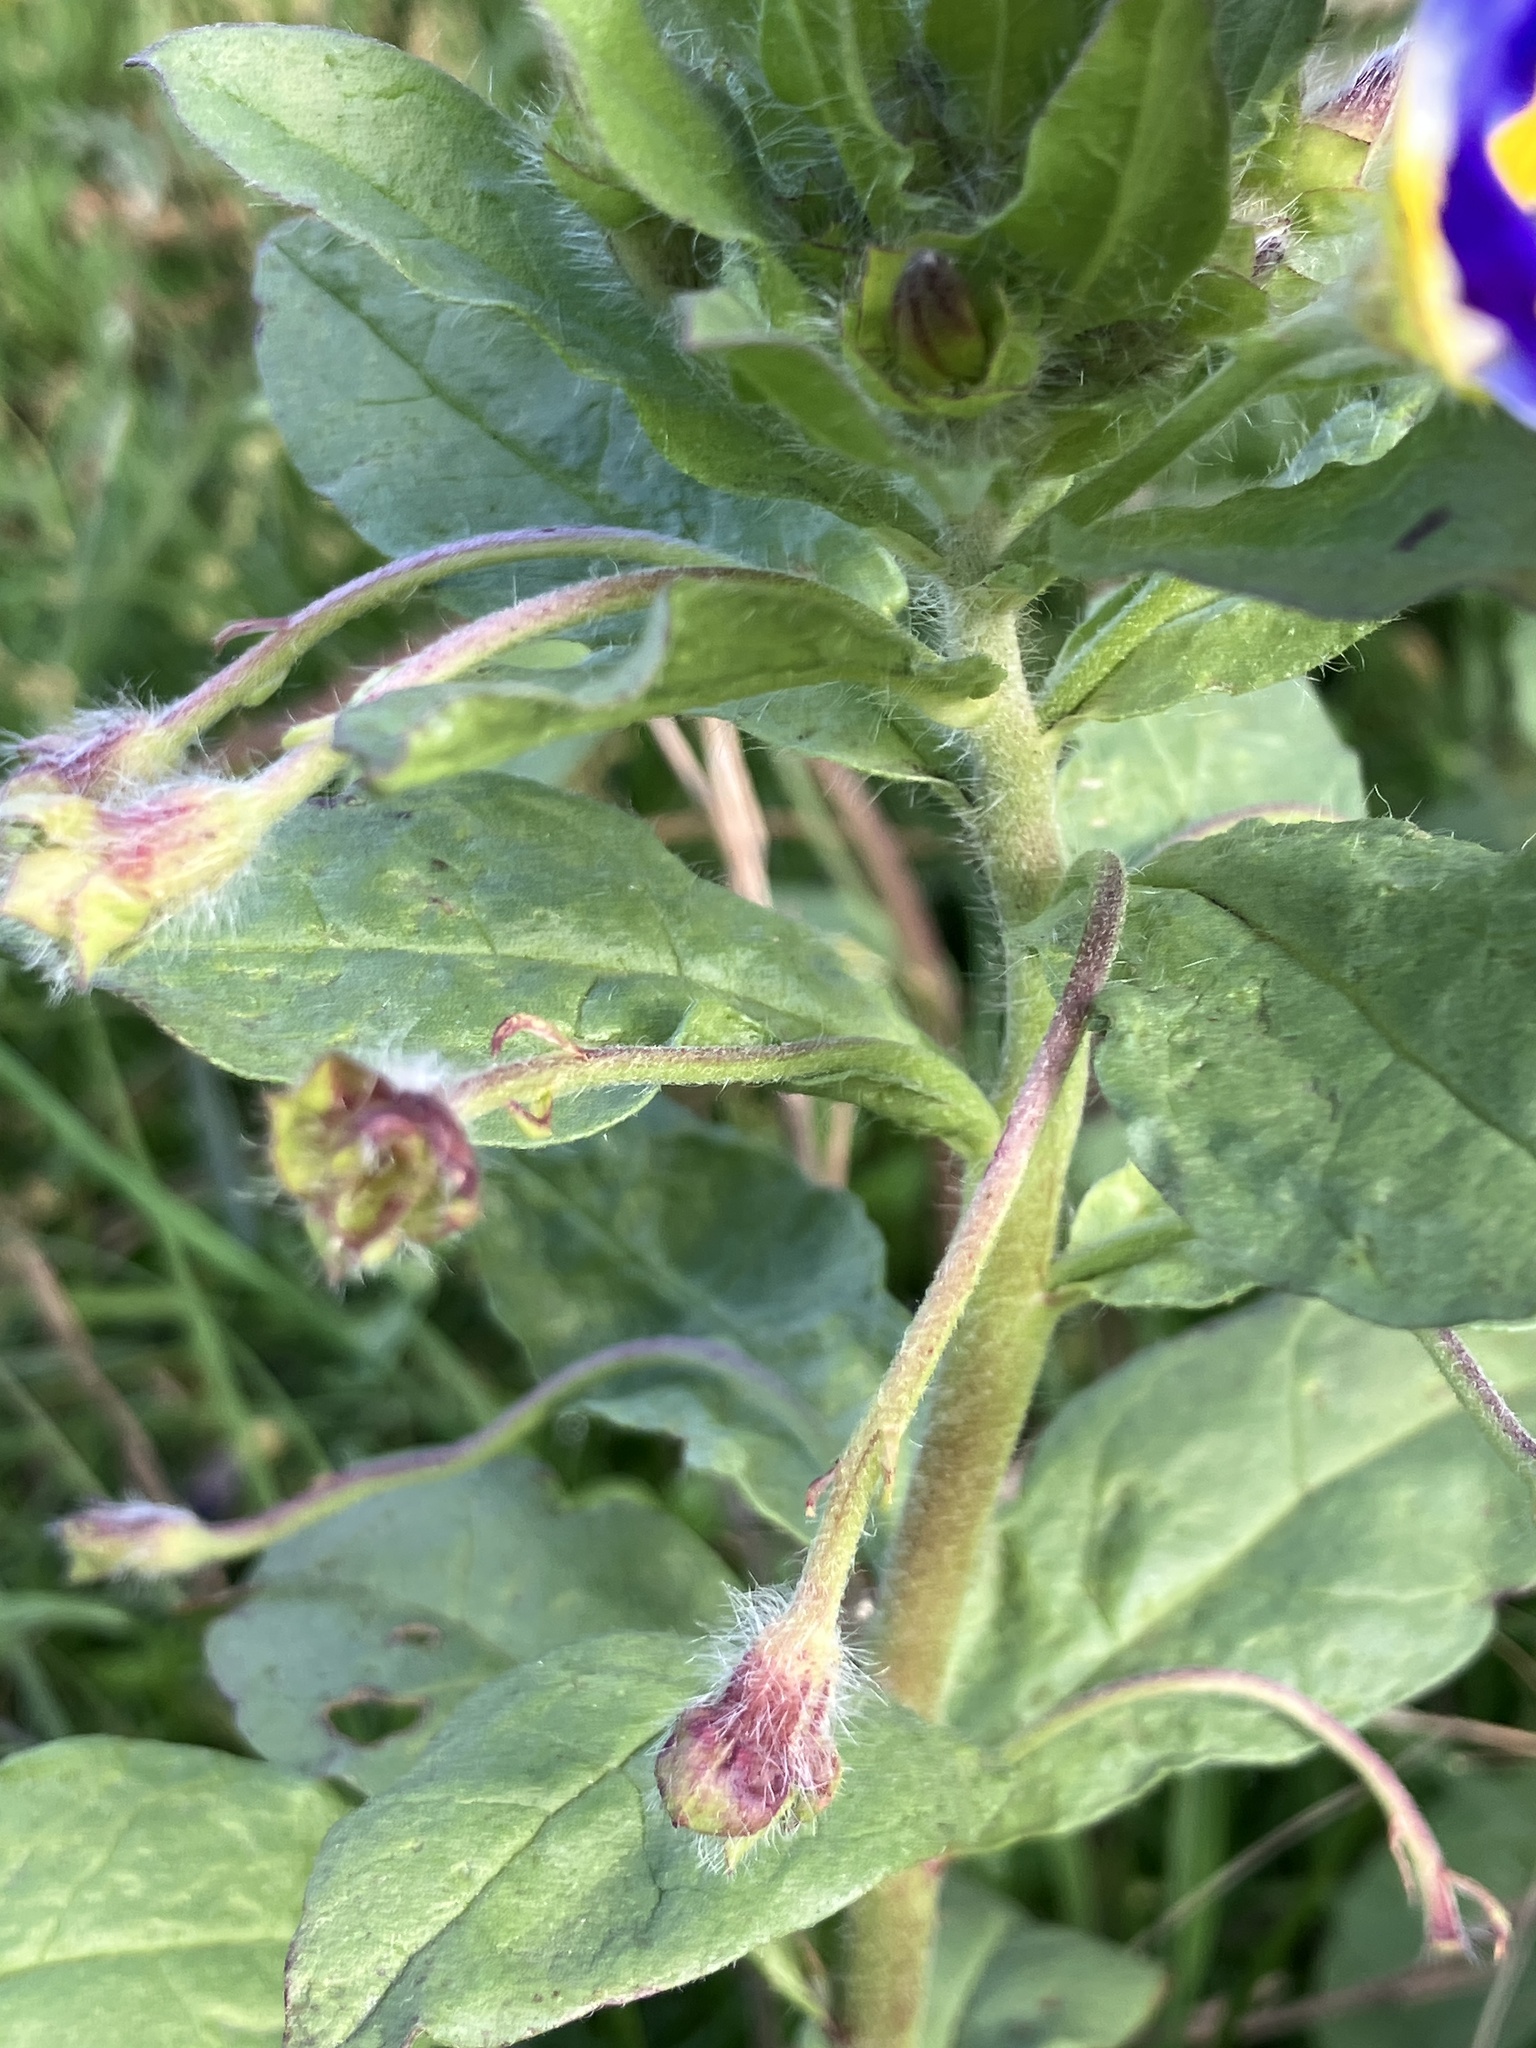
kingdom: Plantae
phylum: Tracheophyta
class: Magnoliopsida
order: Solanales
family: Convolvulaceae
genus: Convolvulus
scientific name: Convolvulus tricolor
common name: Dwarf morning-glory
